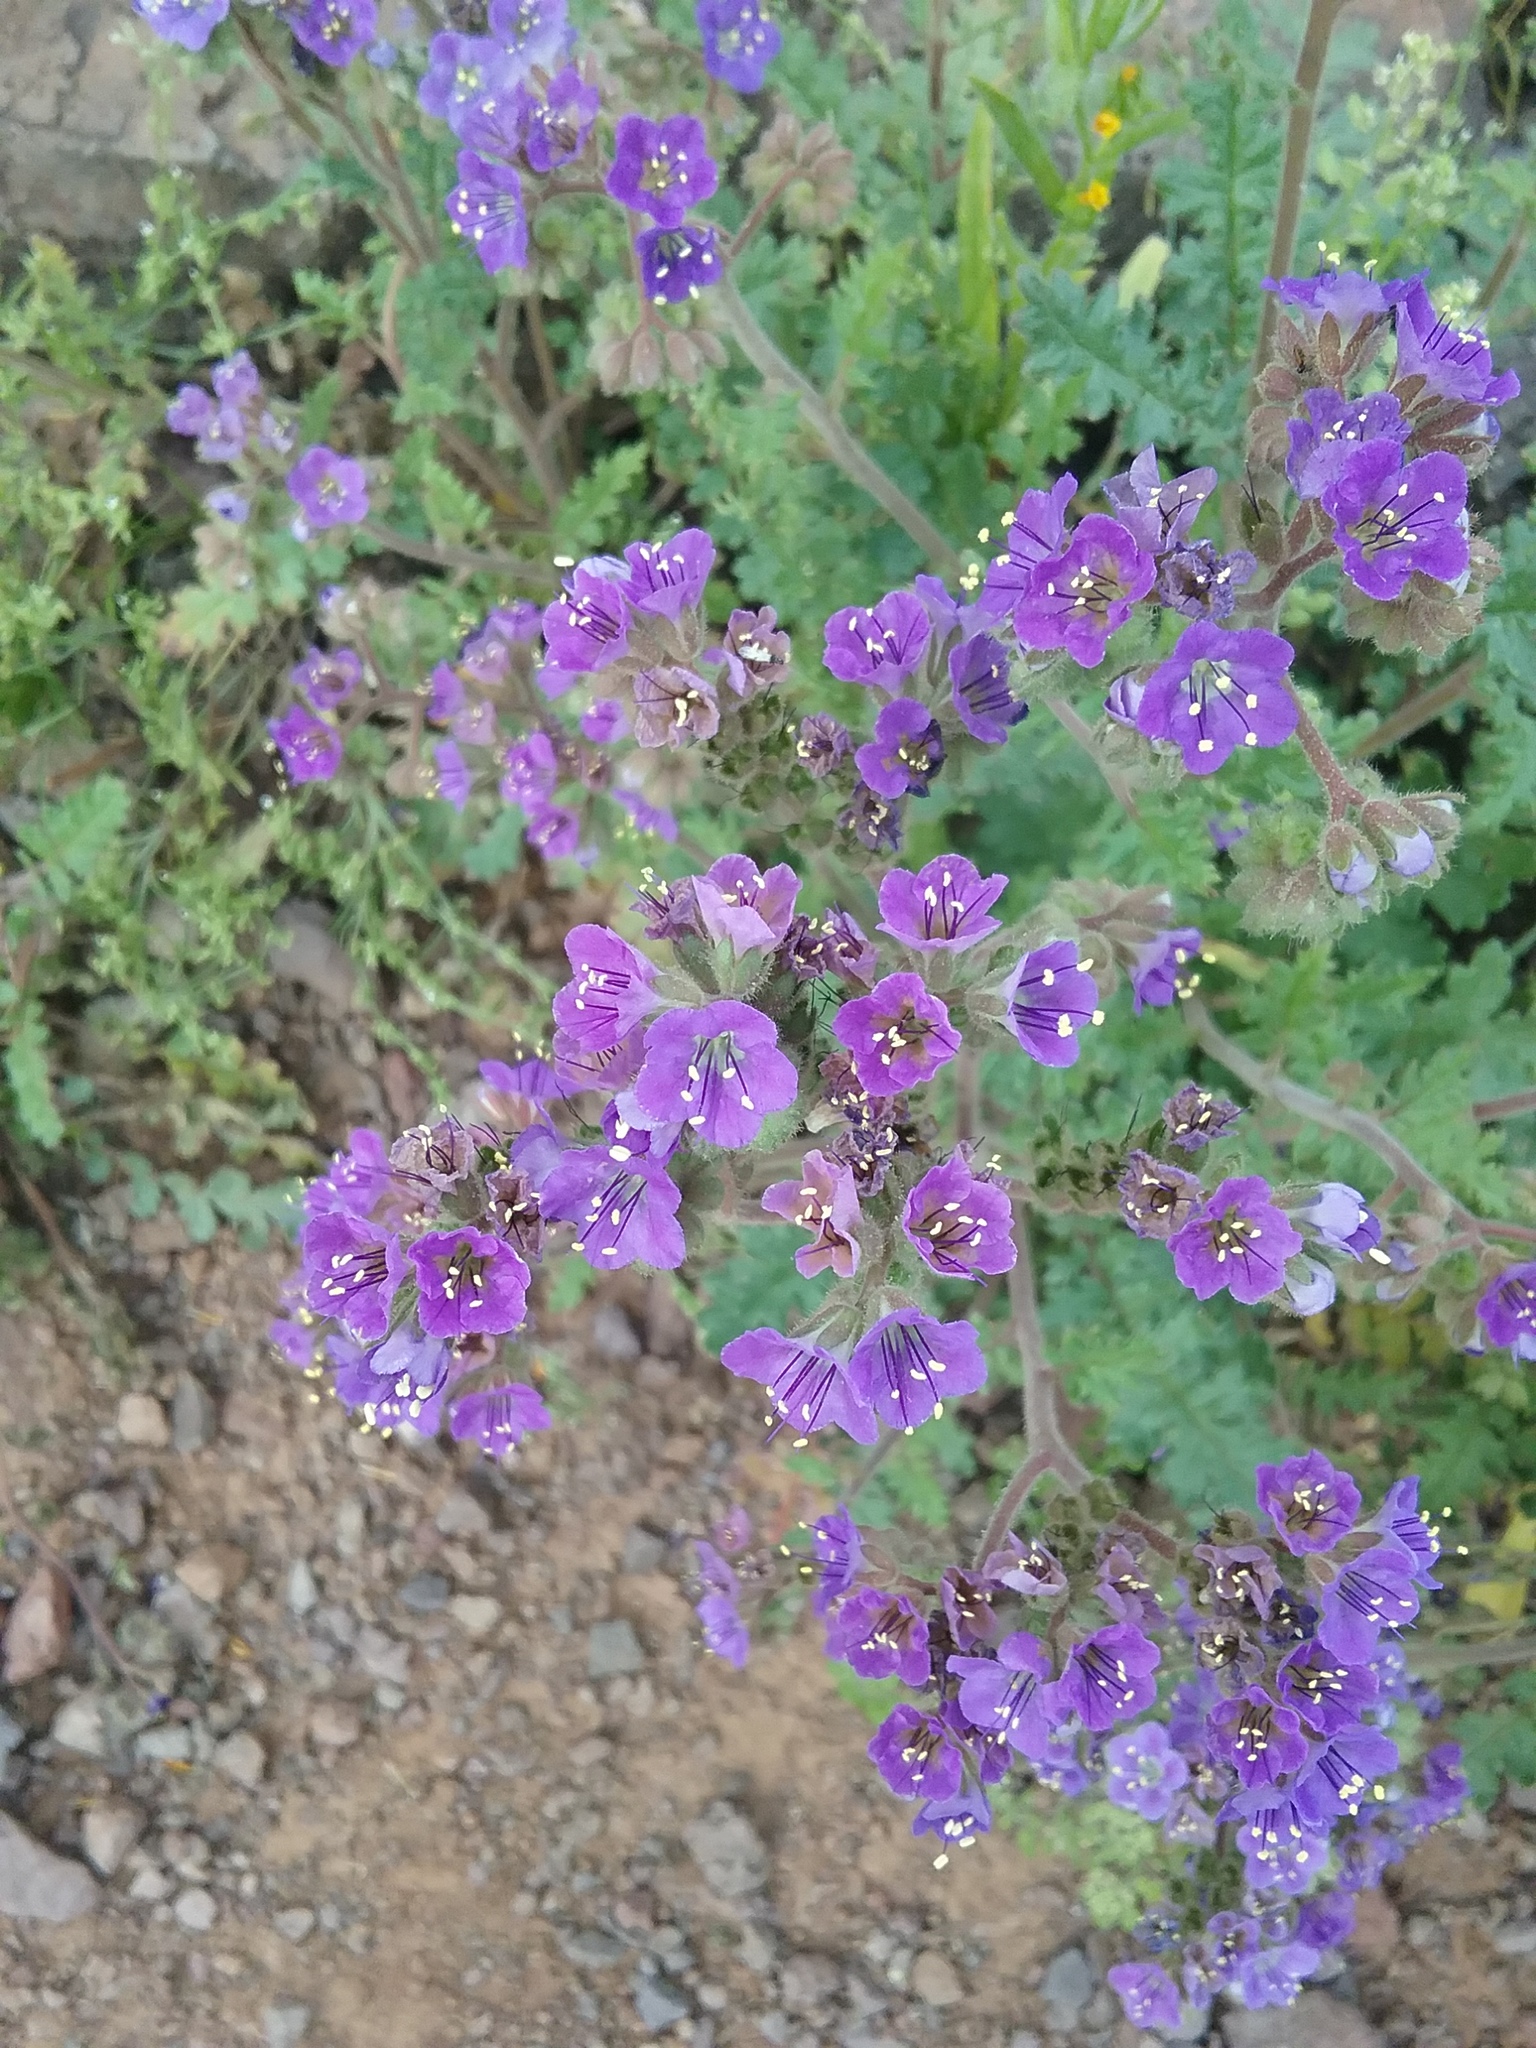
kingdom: Plantae
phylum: Tracheophyta
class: Magnoliopsida
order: Boraginales
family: Hydrophyllaceae
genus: Phacelia
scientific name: Phacelia crenulata
